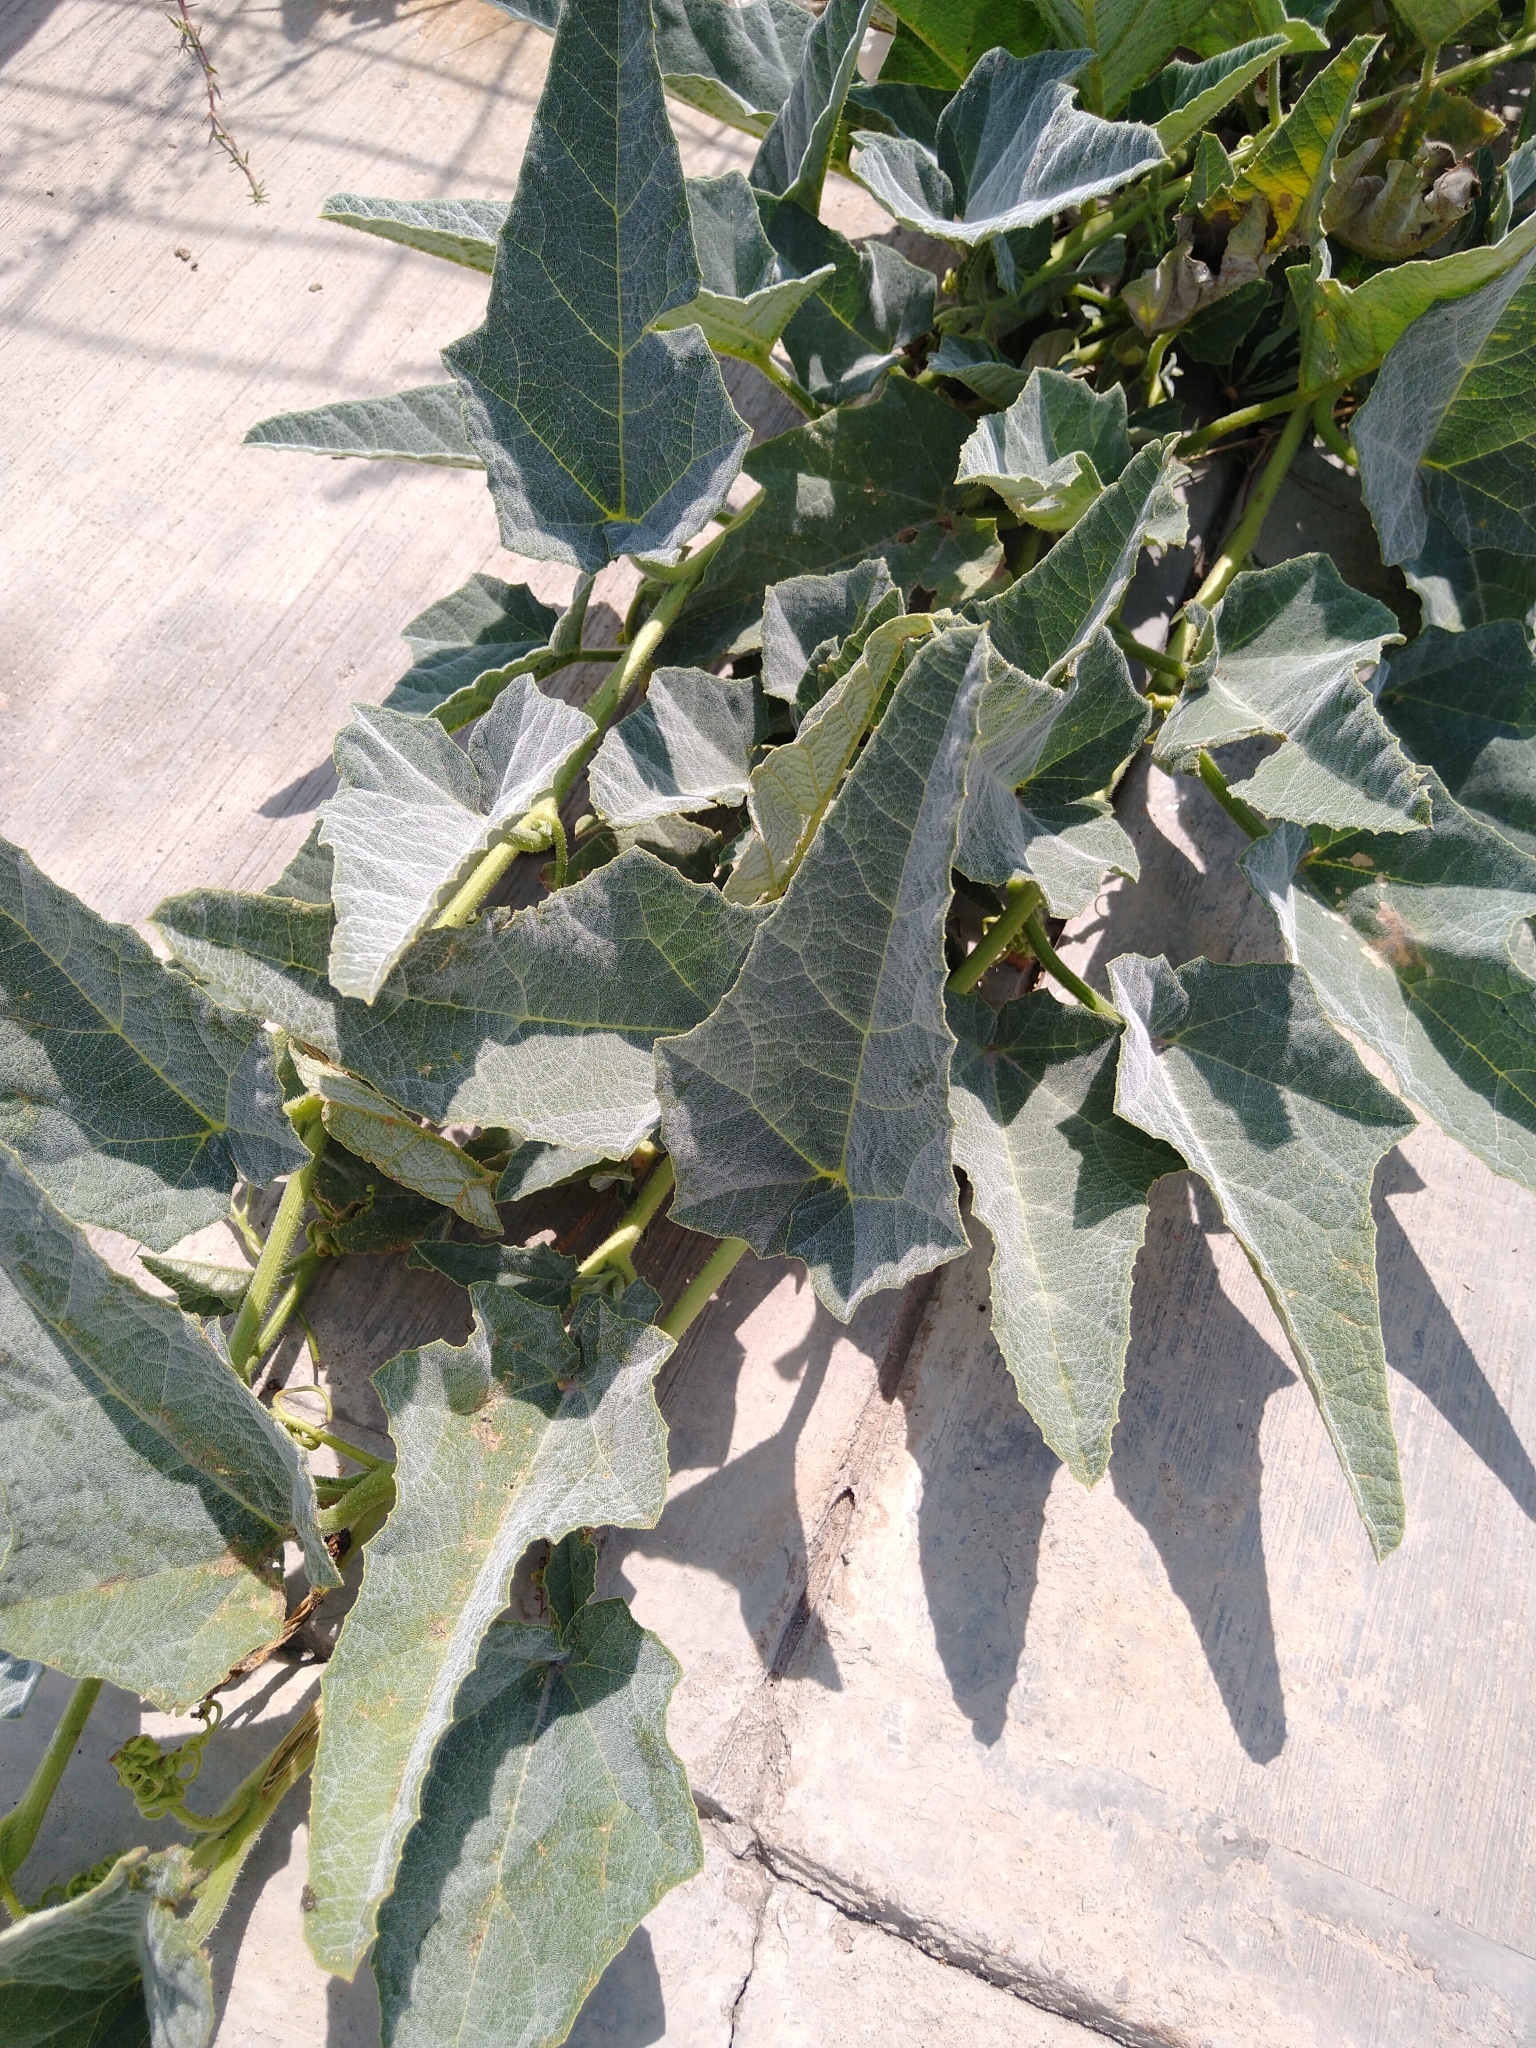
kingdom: Plantae
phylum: Tracheophyta
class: Magnoliopsida
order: Cucurbitales
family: Cucurbitaceae
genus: Cucurbita
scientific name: Cucurbita foetidissima
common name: Buffalo gourd
